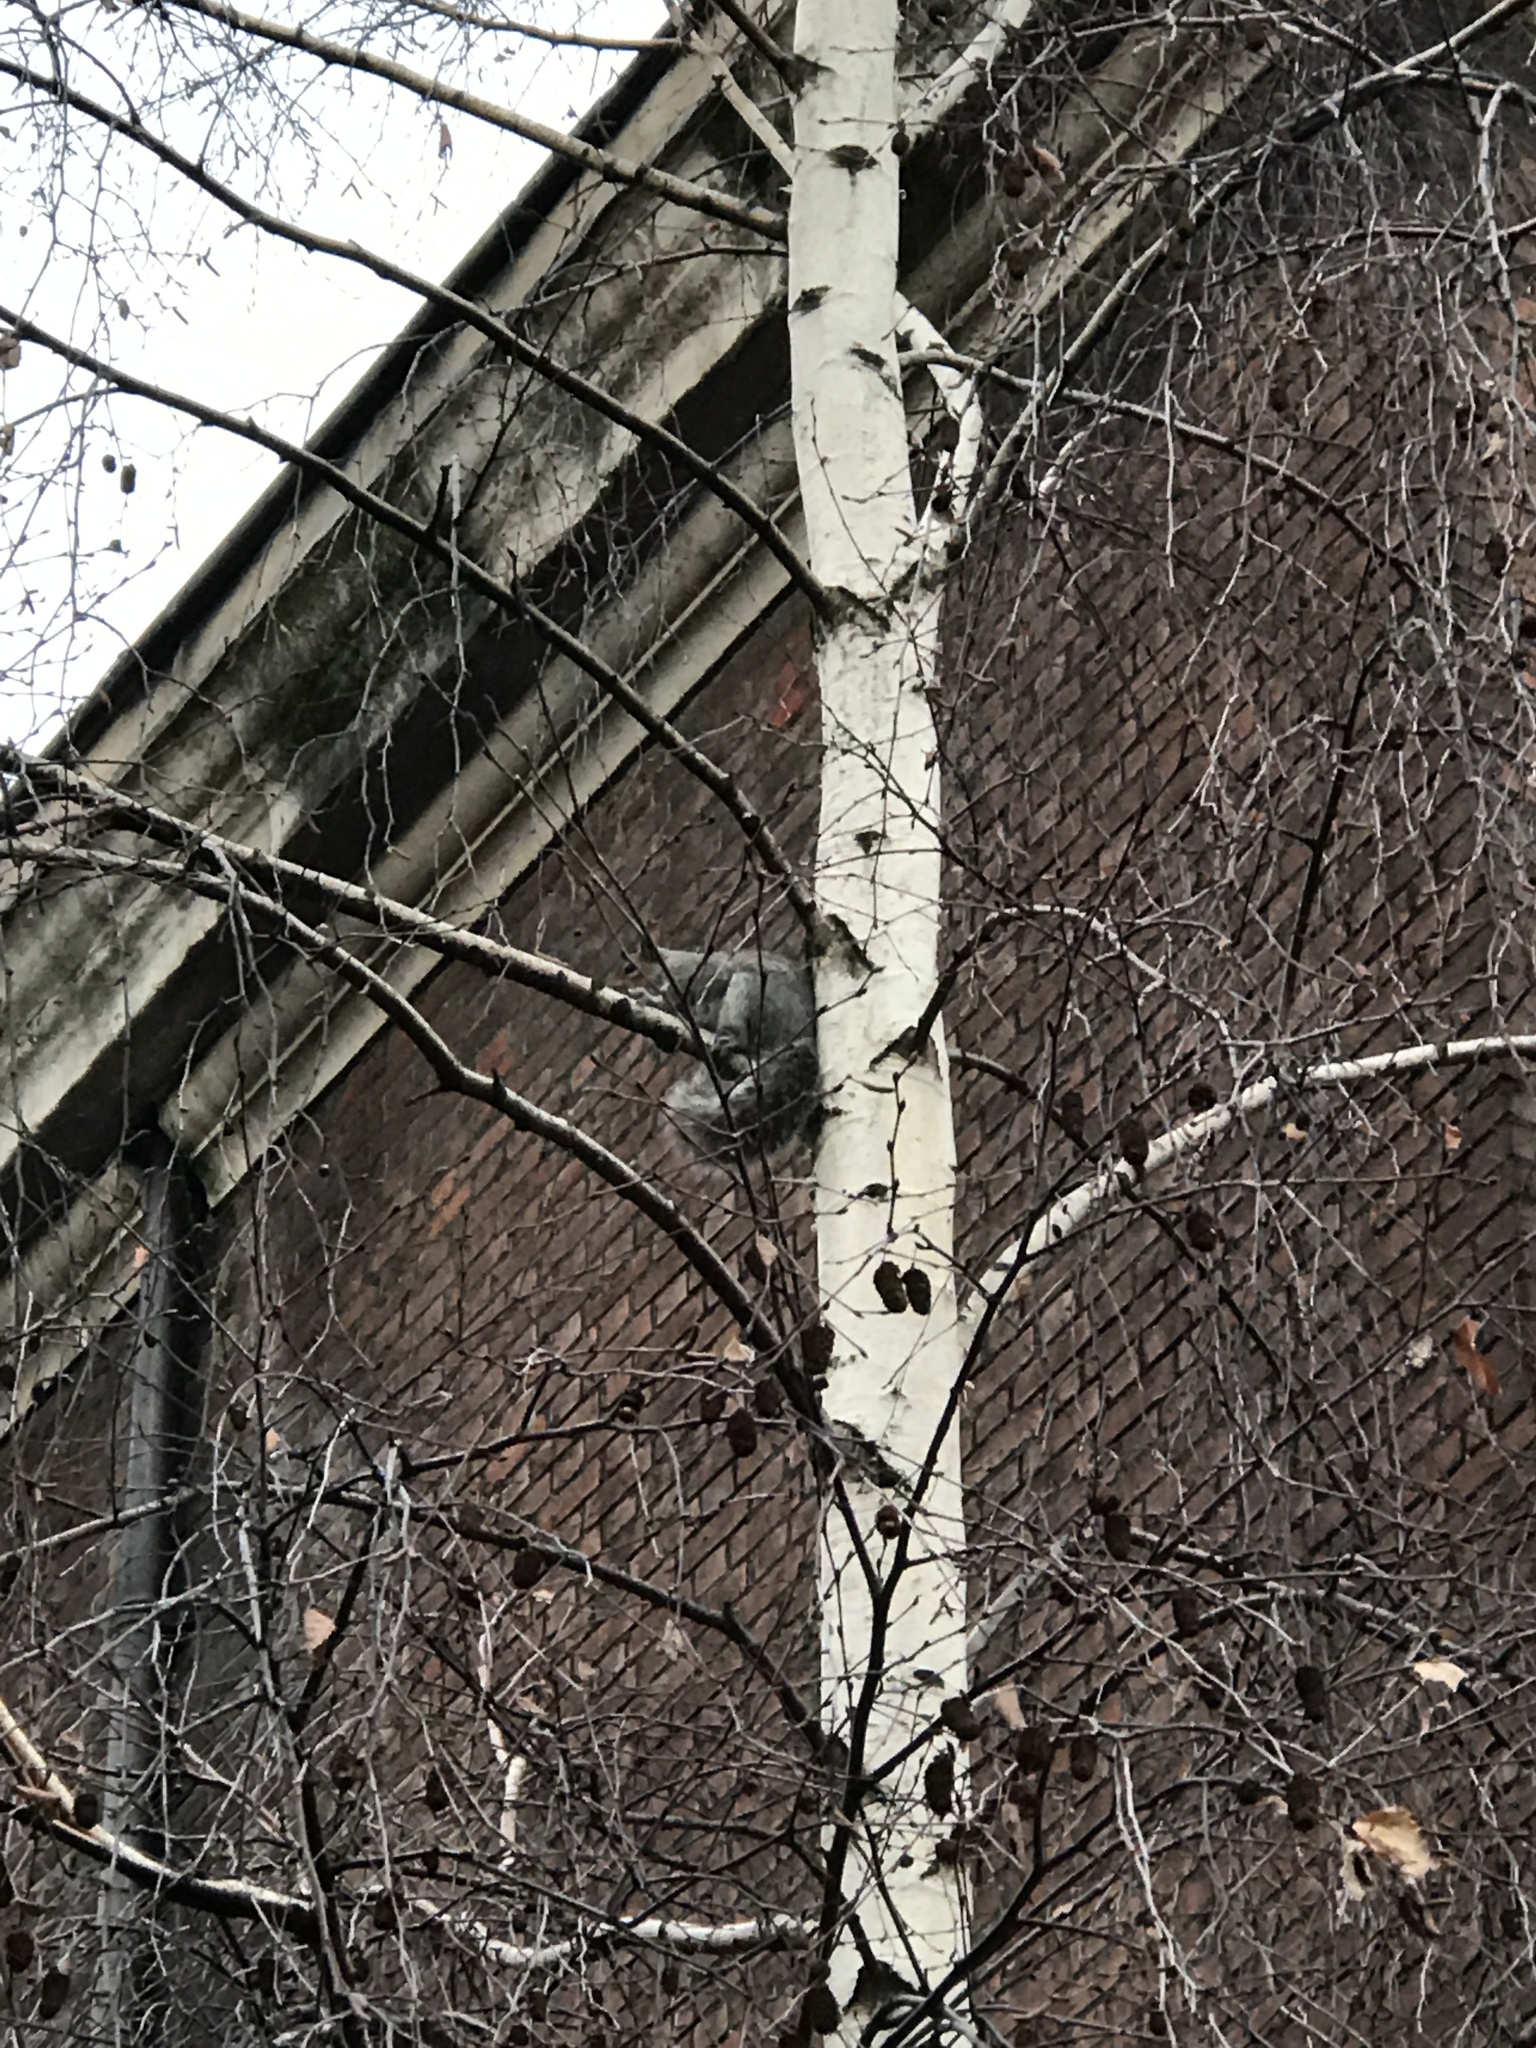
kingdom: Animalia
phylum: Chordata
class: Mammalia
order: Rodentia
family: Sciuridae
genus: Sciurus
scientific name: Sciurus carolinensis
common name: Eastern gray squirrel
